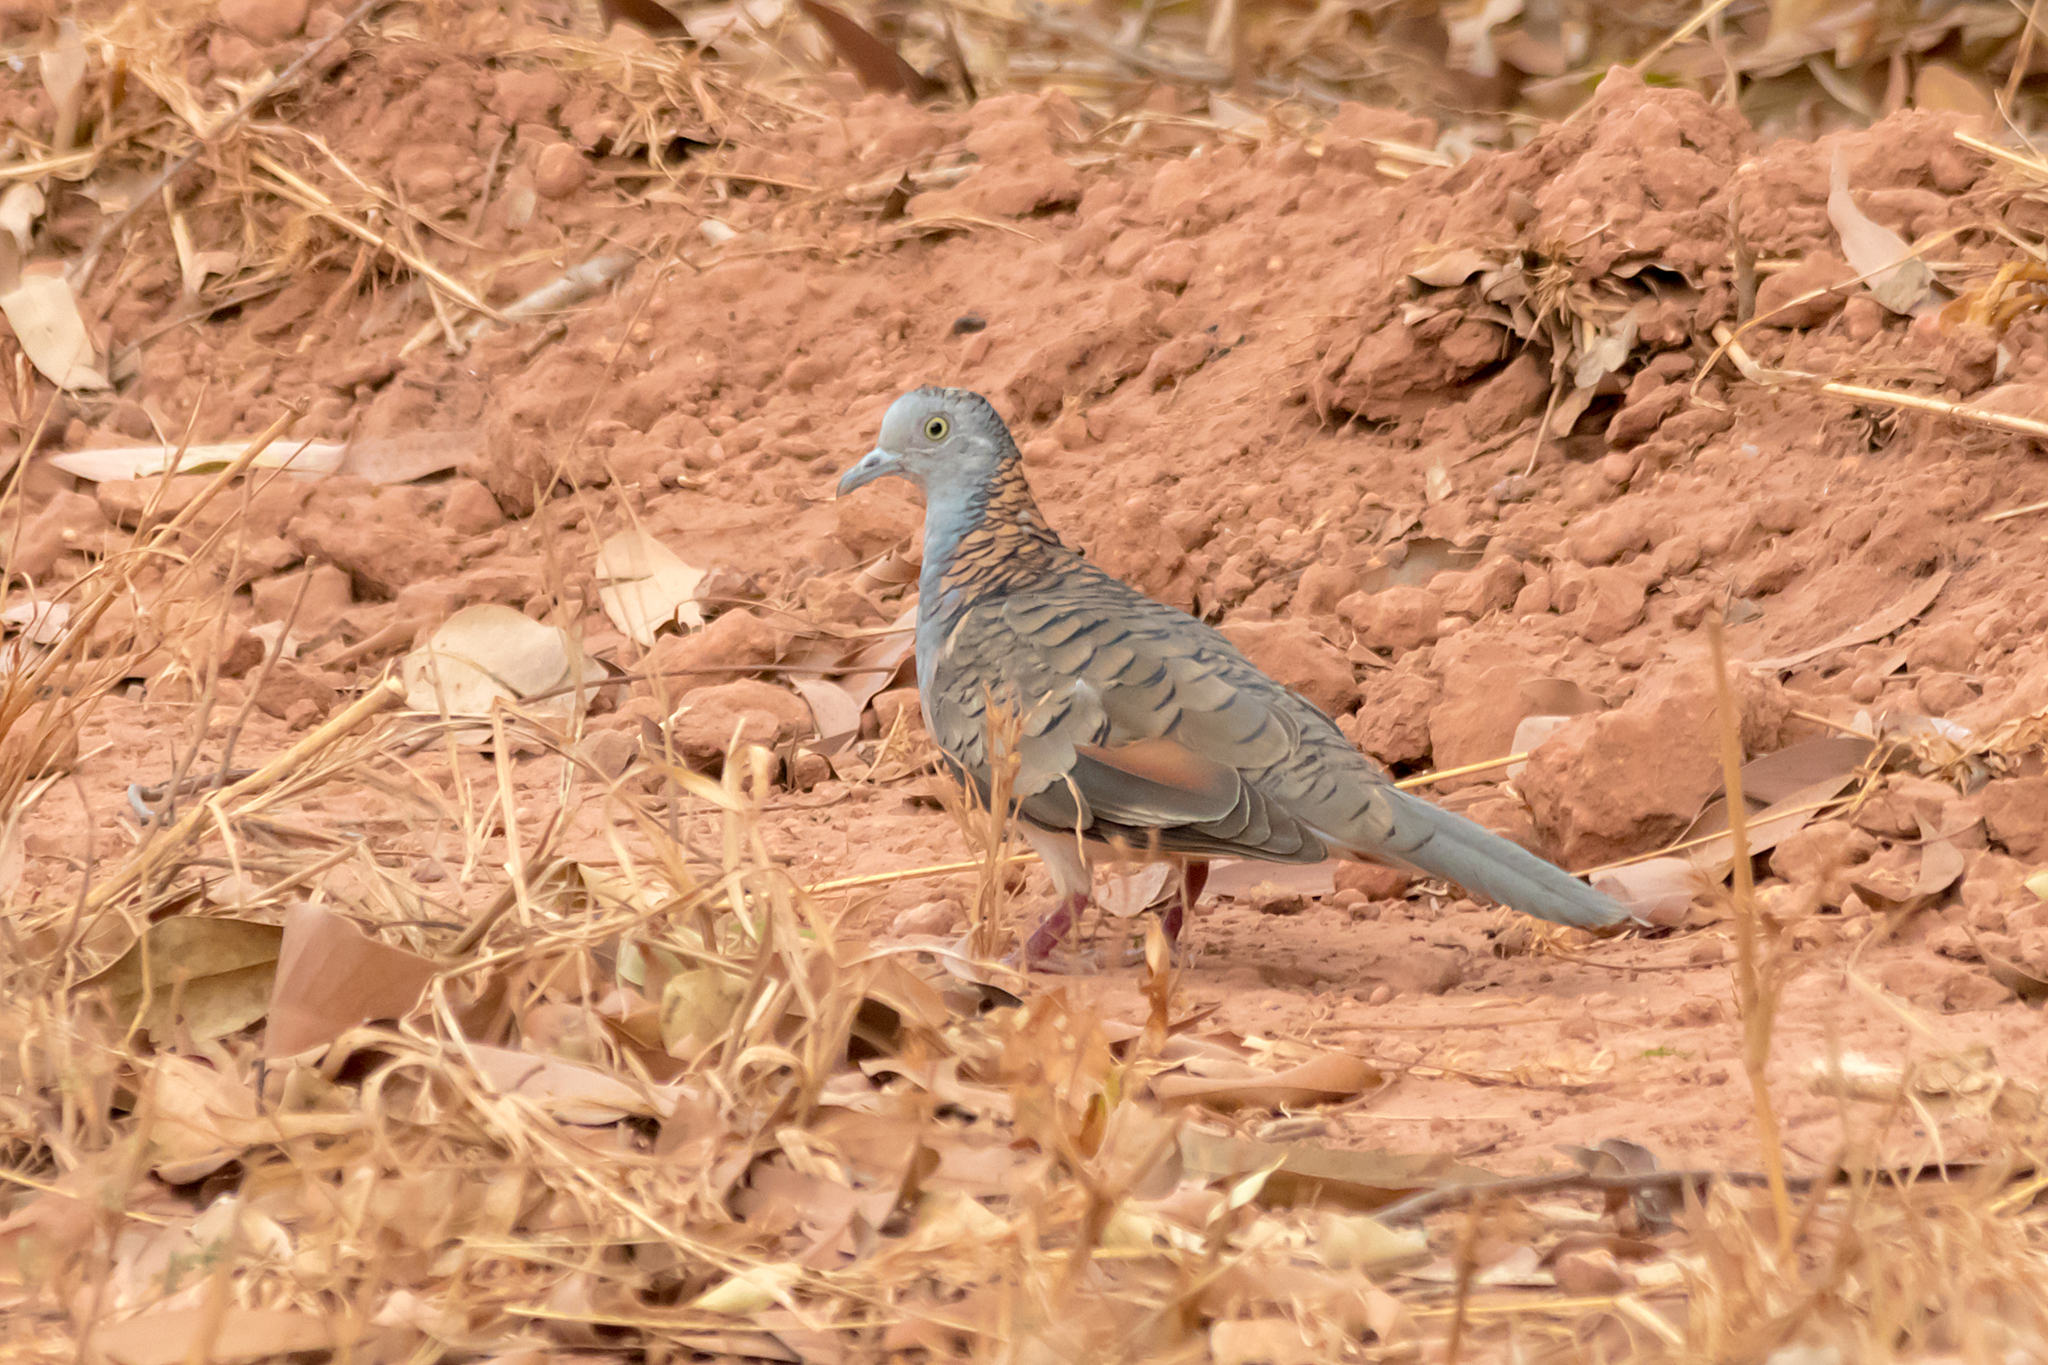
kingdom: Animalia
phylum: Chordata
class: Aves
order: Columbiformes
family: Columbidae
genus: Geopelia
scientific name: Geopelia humeralis
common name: Bar-shouldered dove
